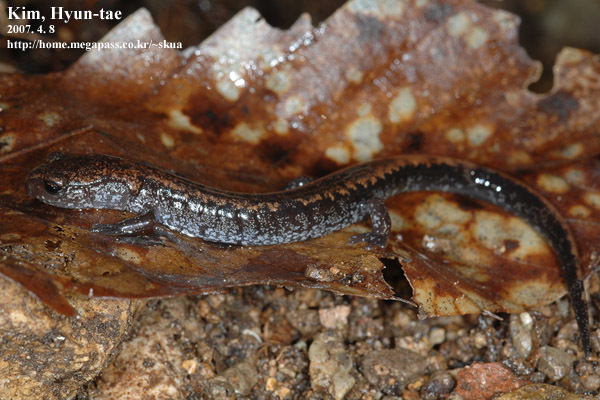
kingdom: Animalia
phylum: Chordata
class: Amphibia
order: Caudata
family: Plethodontidae
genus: Karsenia
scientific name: Karsenia koreana
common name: Korean crevice salamander
